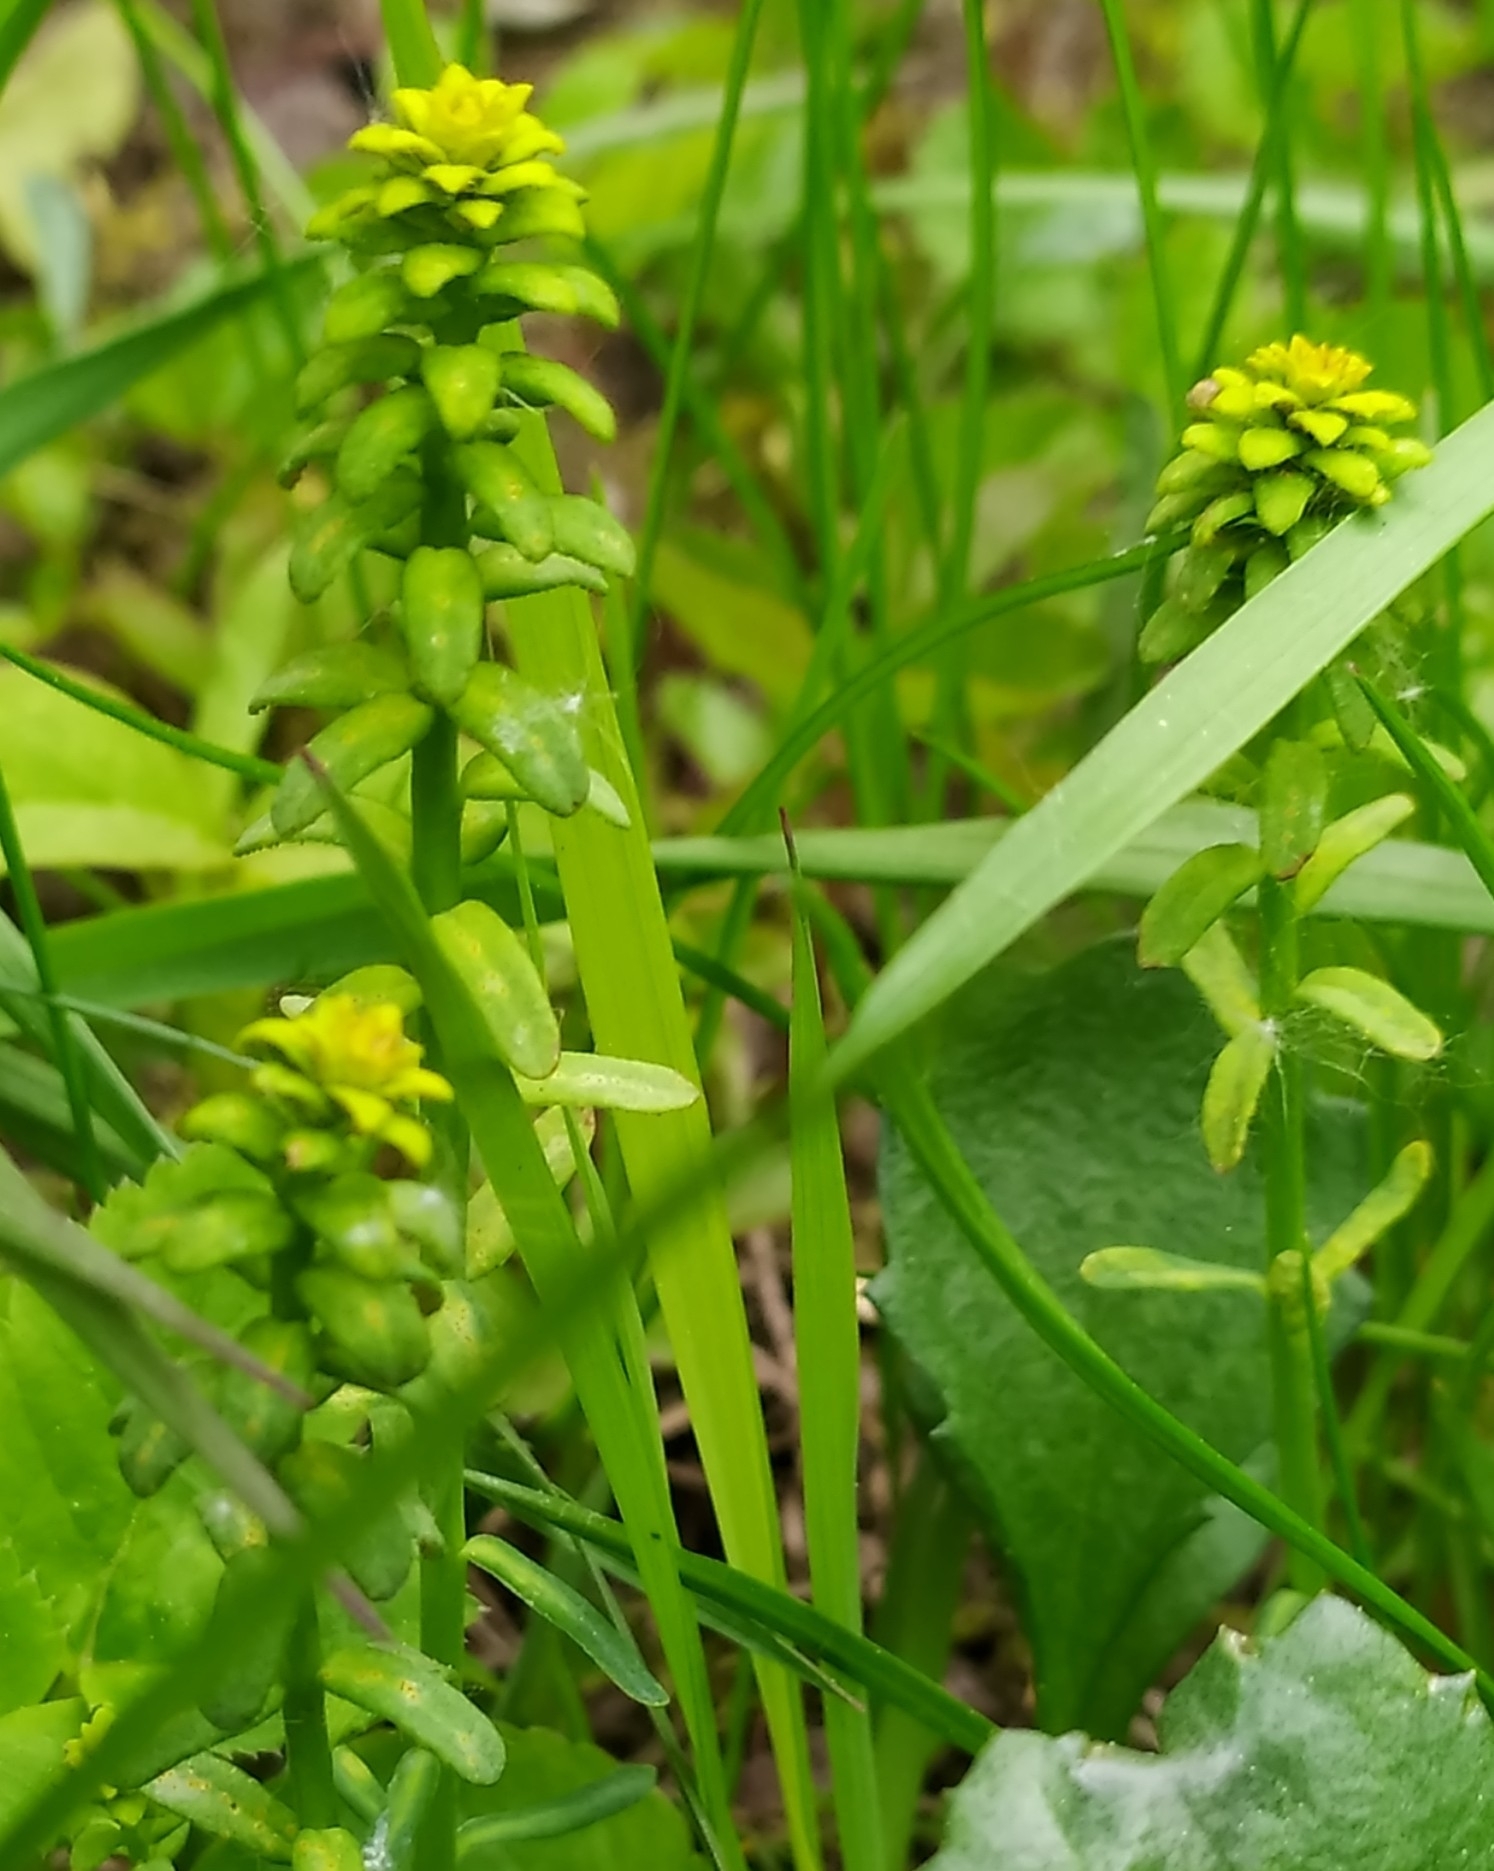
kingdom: Plantae
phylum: Tracheophyta
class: Magnoliopsida
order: Malpighiales
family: Euphorbiaceae
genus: Euphorbia
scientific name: Euphorbia virgata
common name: Leafy spurge
